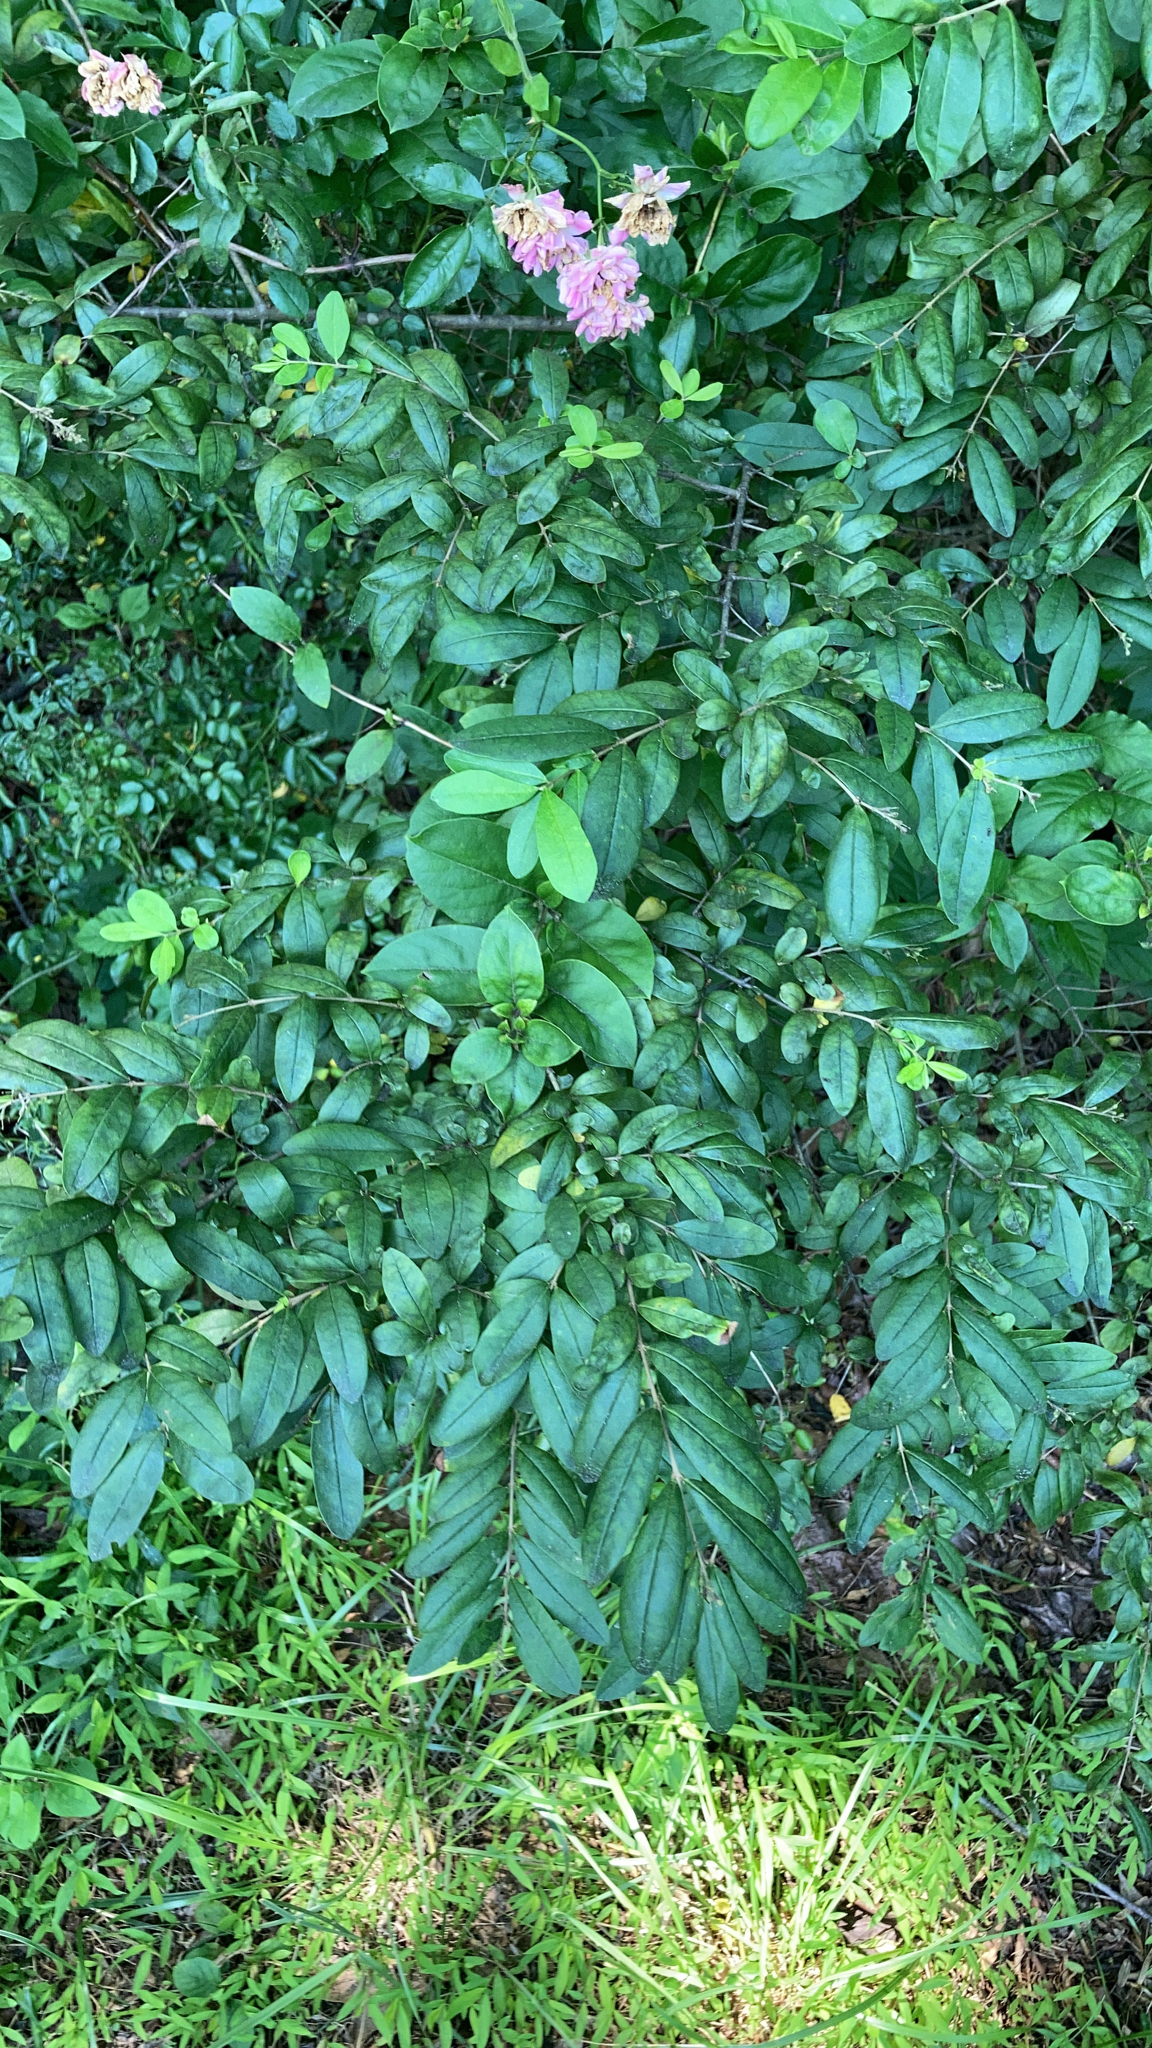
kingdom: Plantae
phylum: Tracheophyta
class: Magnoliopsida
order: Lamiales
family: Oleaceae
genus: Ligustrum
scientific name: Ligustrum obtusifolium
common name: Border privet
